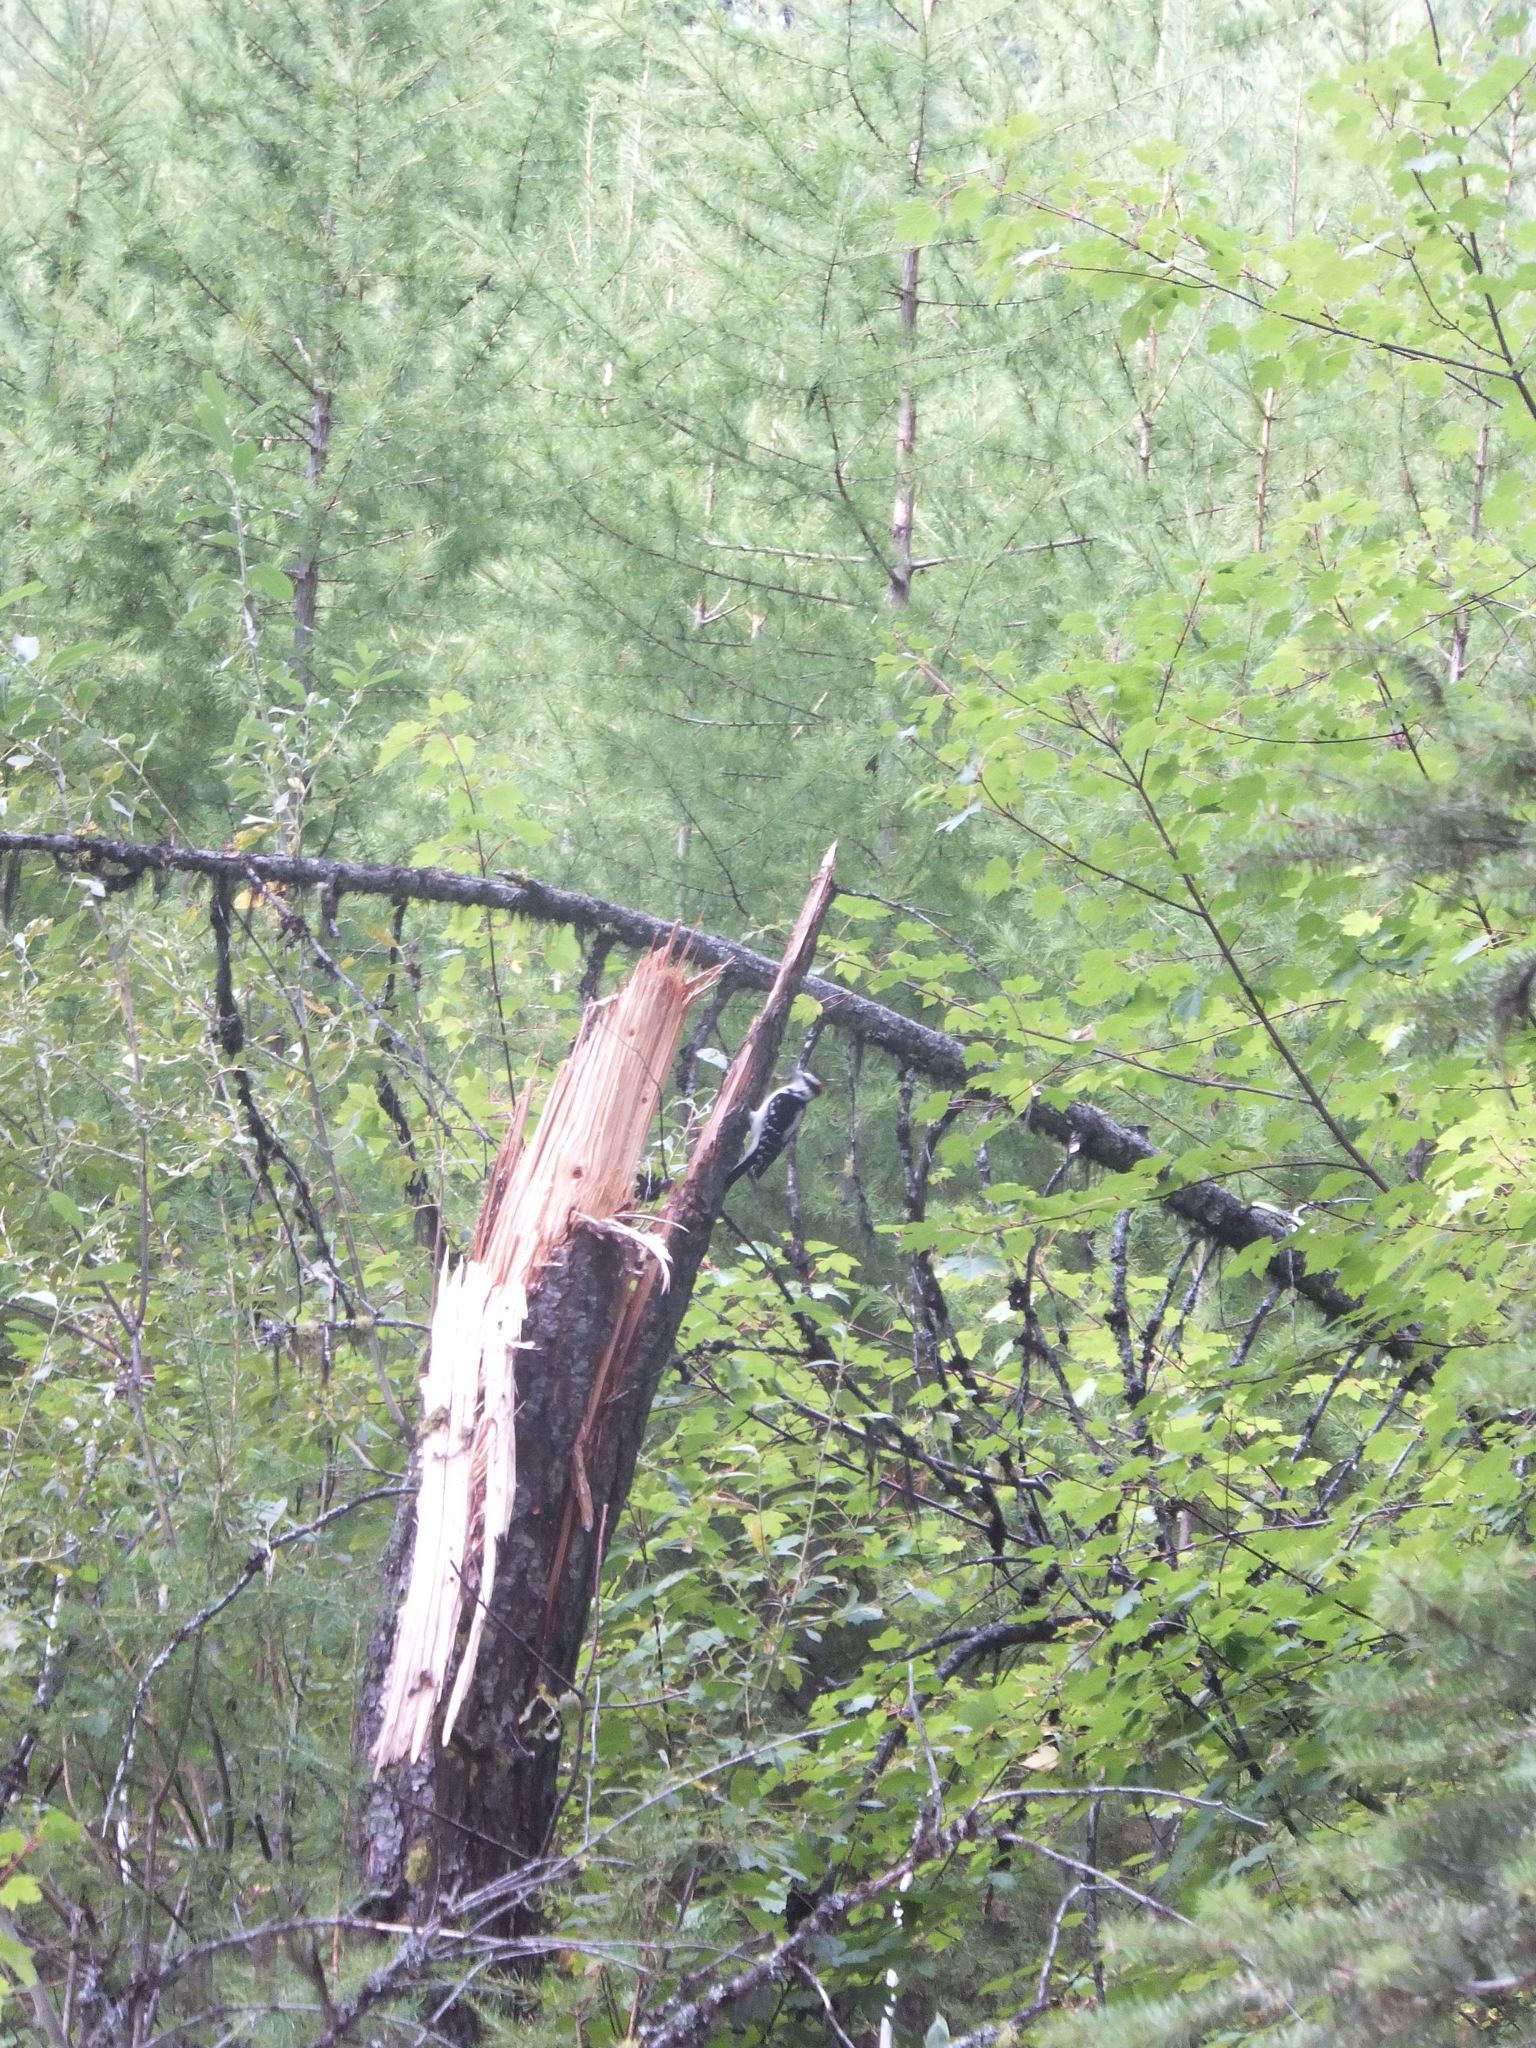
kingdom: Animalia
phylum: Chordata
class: Aves
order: Piciformes
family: Picidae
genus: Leuconotopicus
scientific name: Leuconotopicus villosus
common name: Hairy woodpecker
